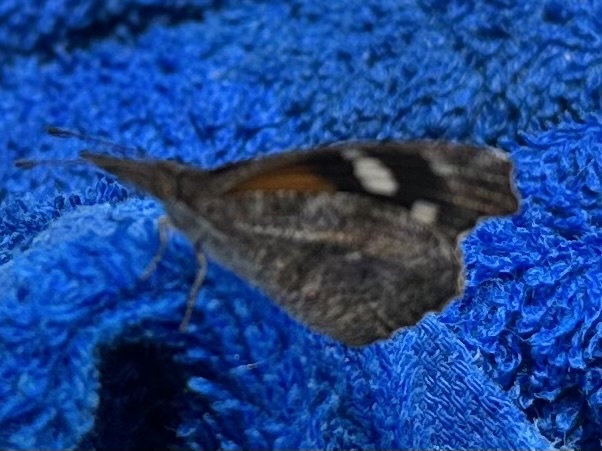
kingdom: Animalia
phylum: Arthropoda
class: Insecta
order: Lepidoptera
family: Nymphalidae
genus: Libytheana
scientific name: Libytheana carinenta
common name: American snout
